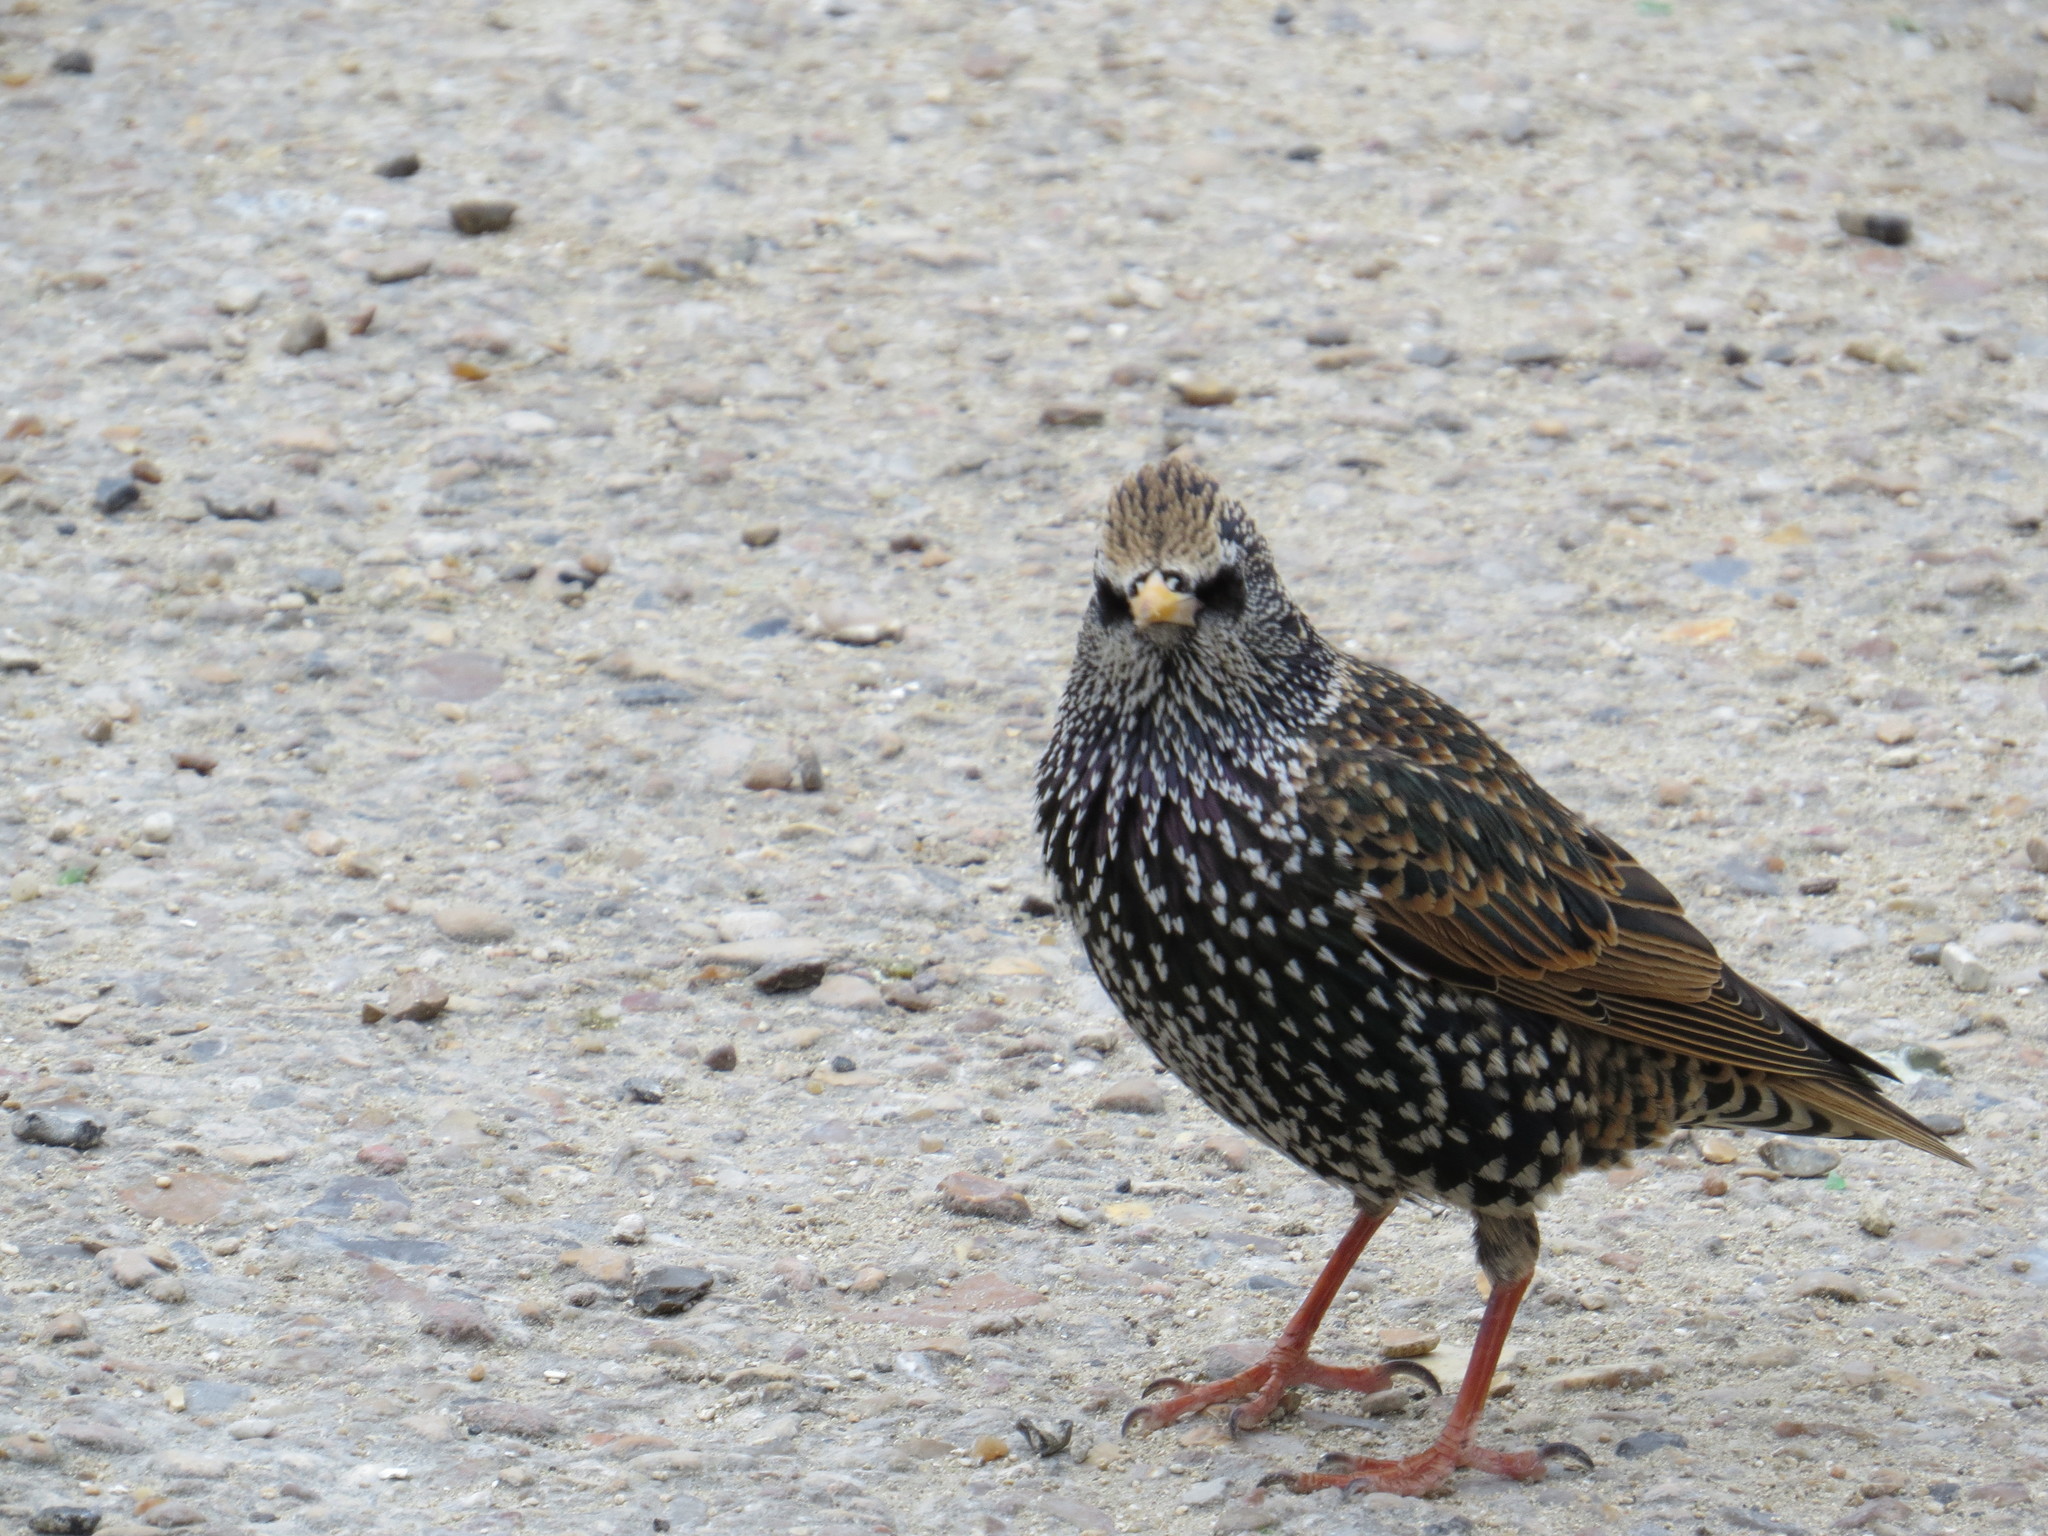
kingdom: Animalia
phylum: Chordata
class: Aves
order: Passeriformes
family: Sturnidae
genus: Sturnus
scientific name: Sturnus vulgaris
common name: Common starling
